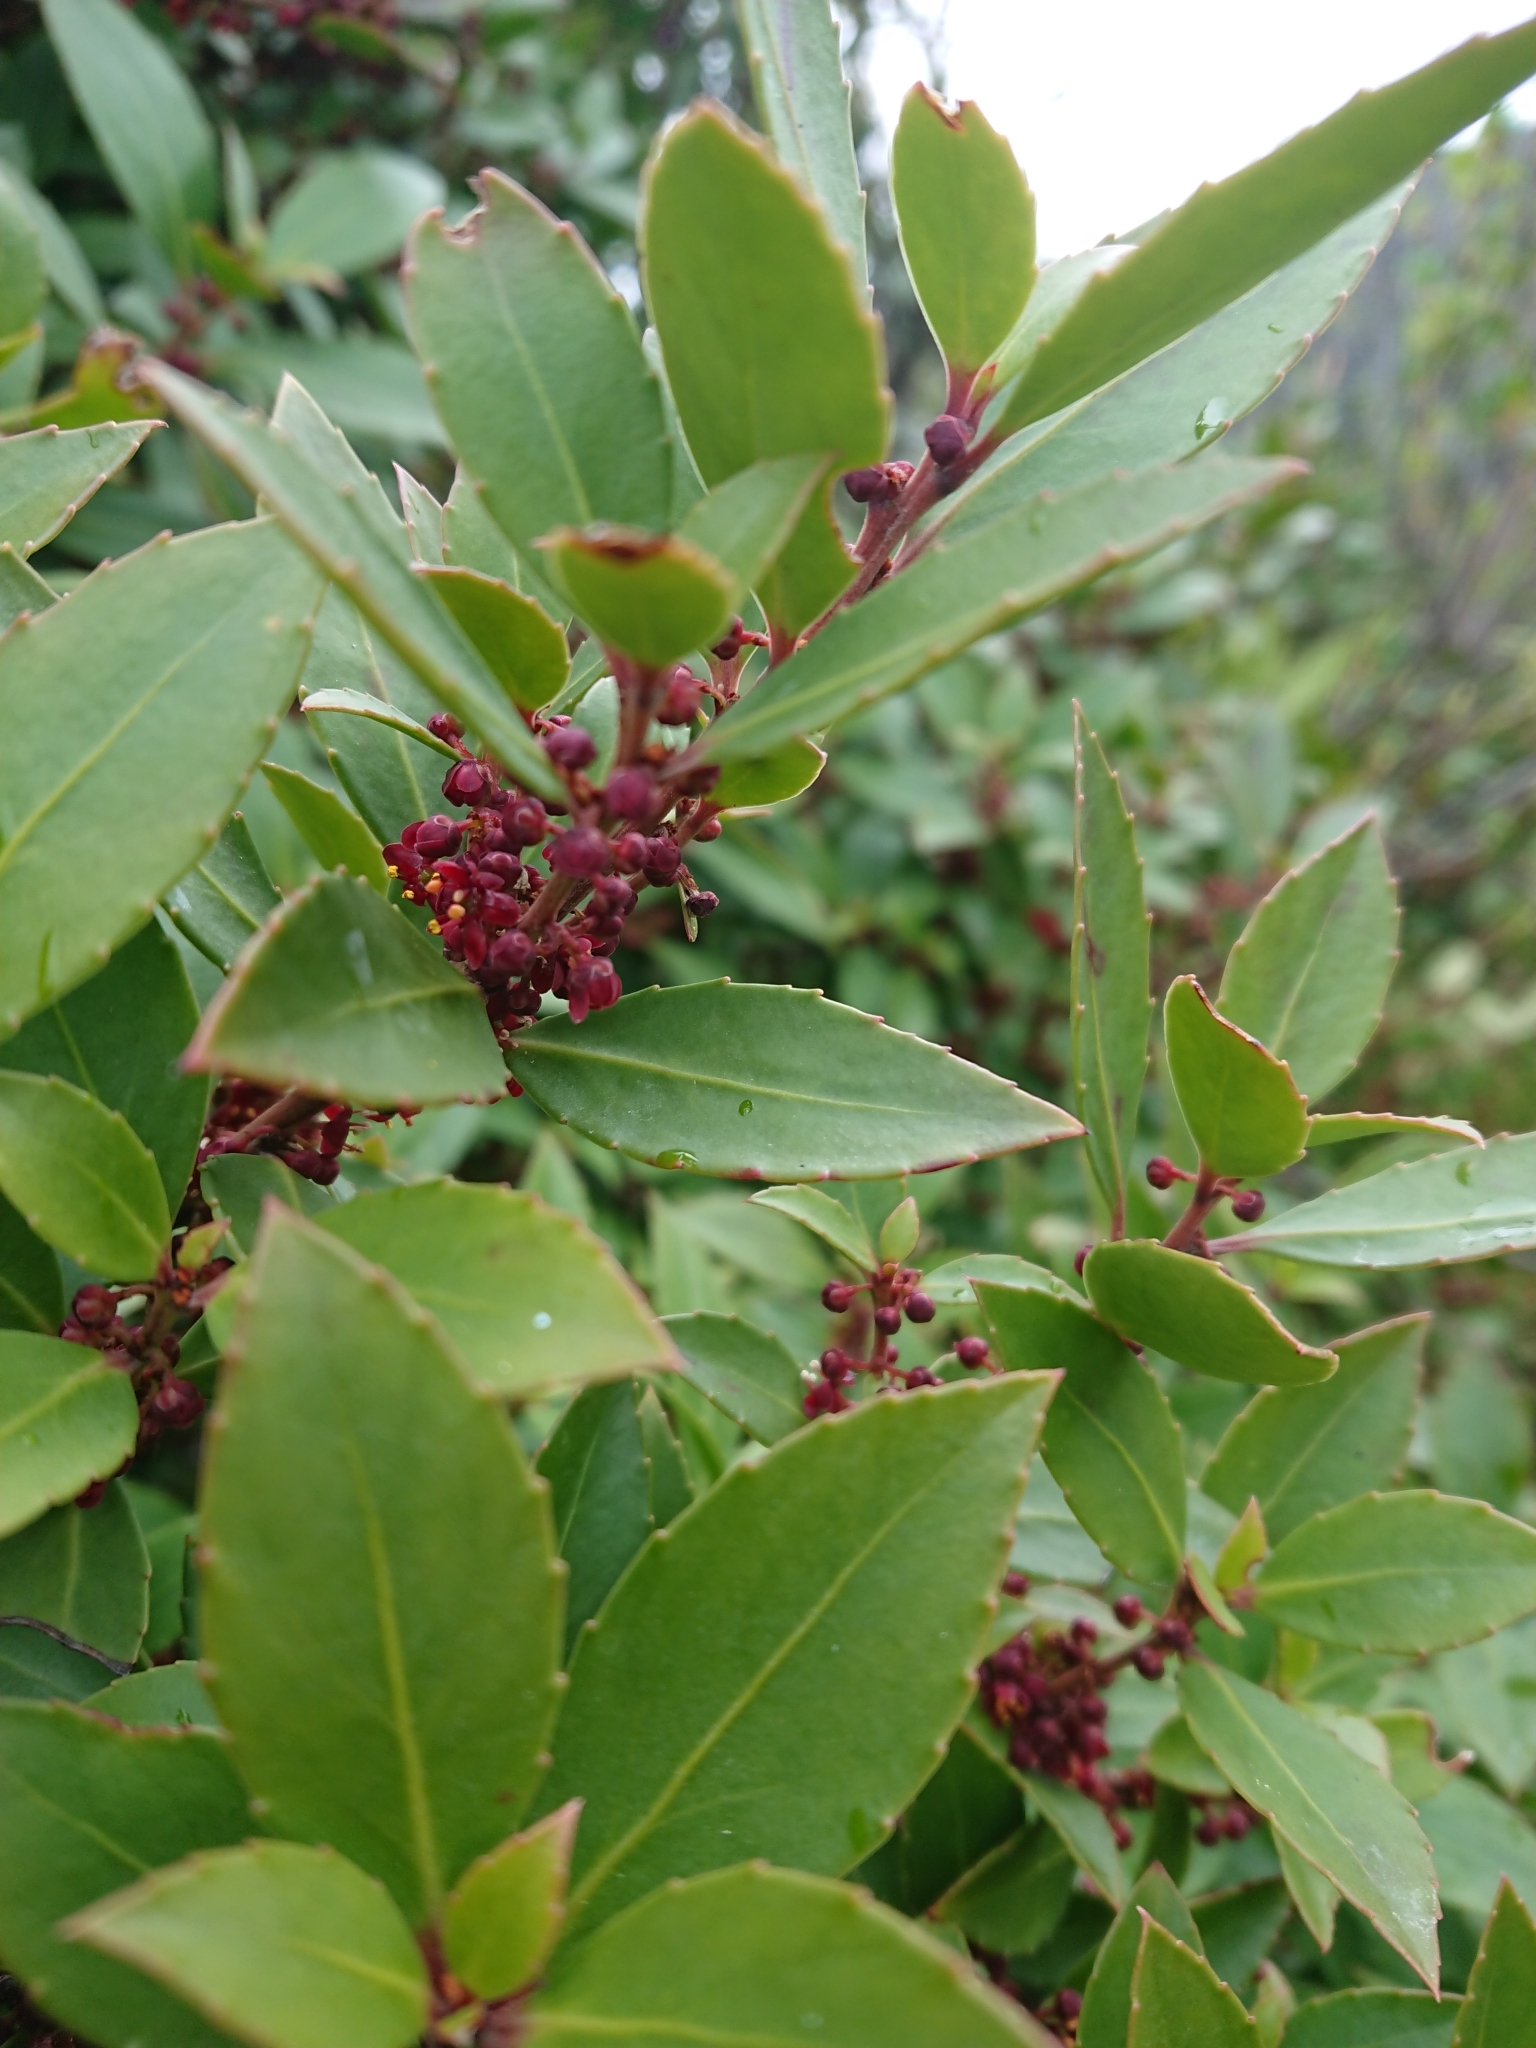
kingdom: Plantae
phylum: Tracheophyta
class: Magnoliopsida
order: Celastrales
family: Celastraceae
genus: Maytenus
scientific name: Maytenus magellanica
